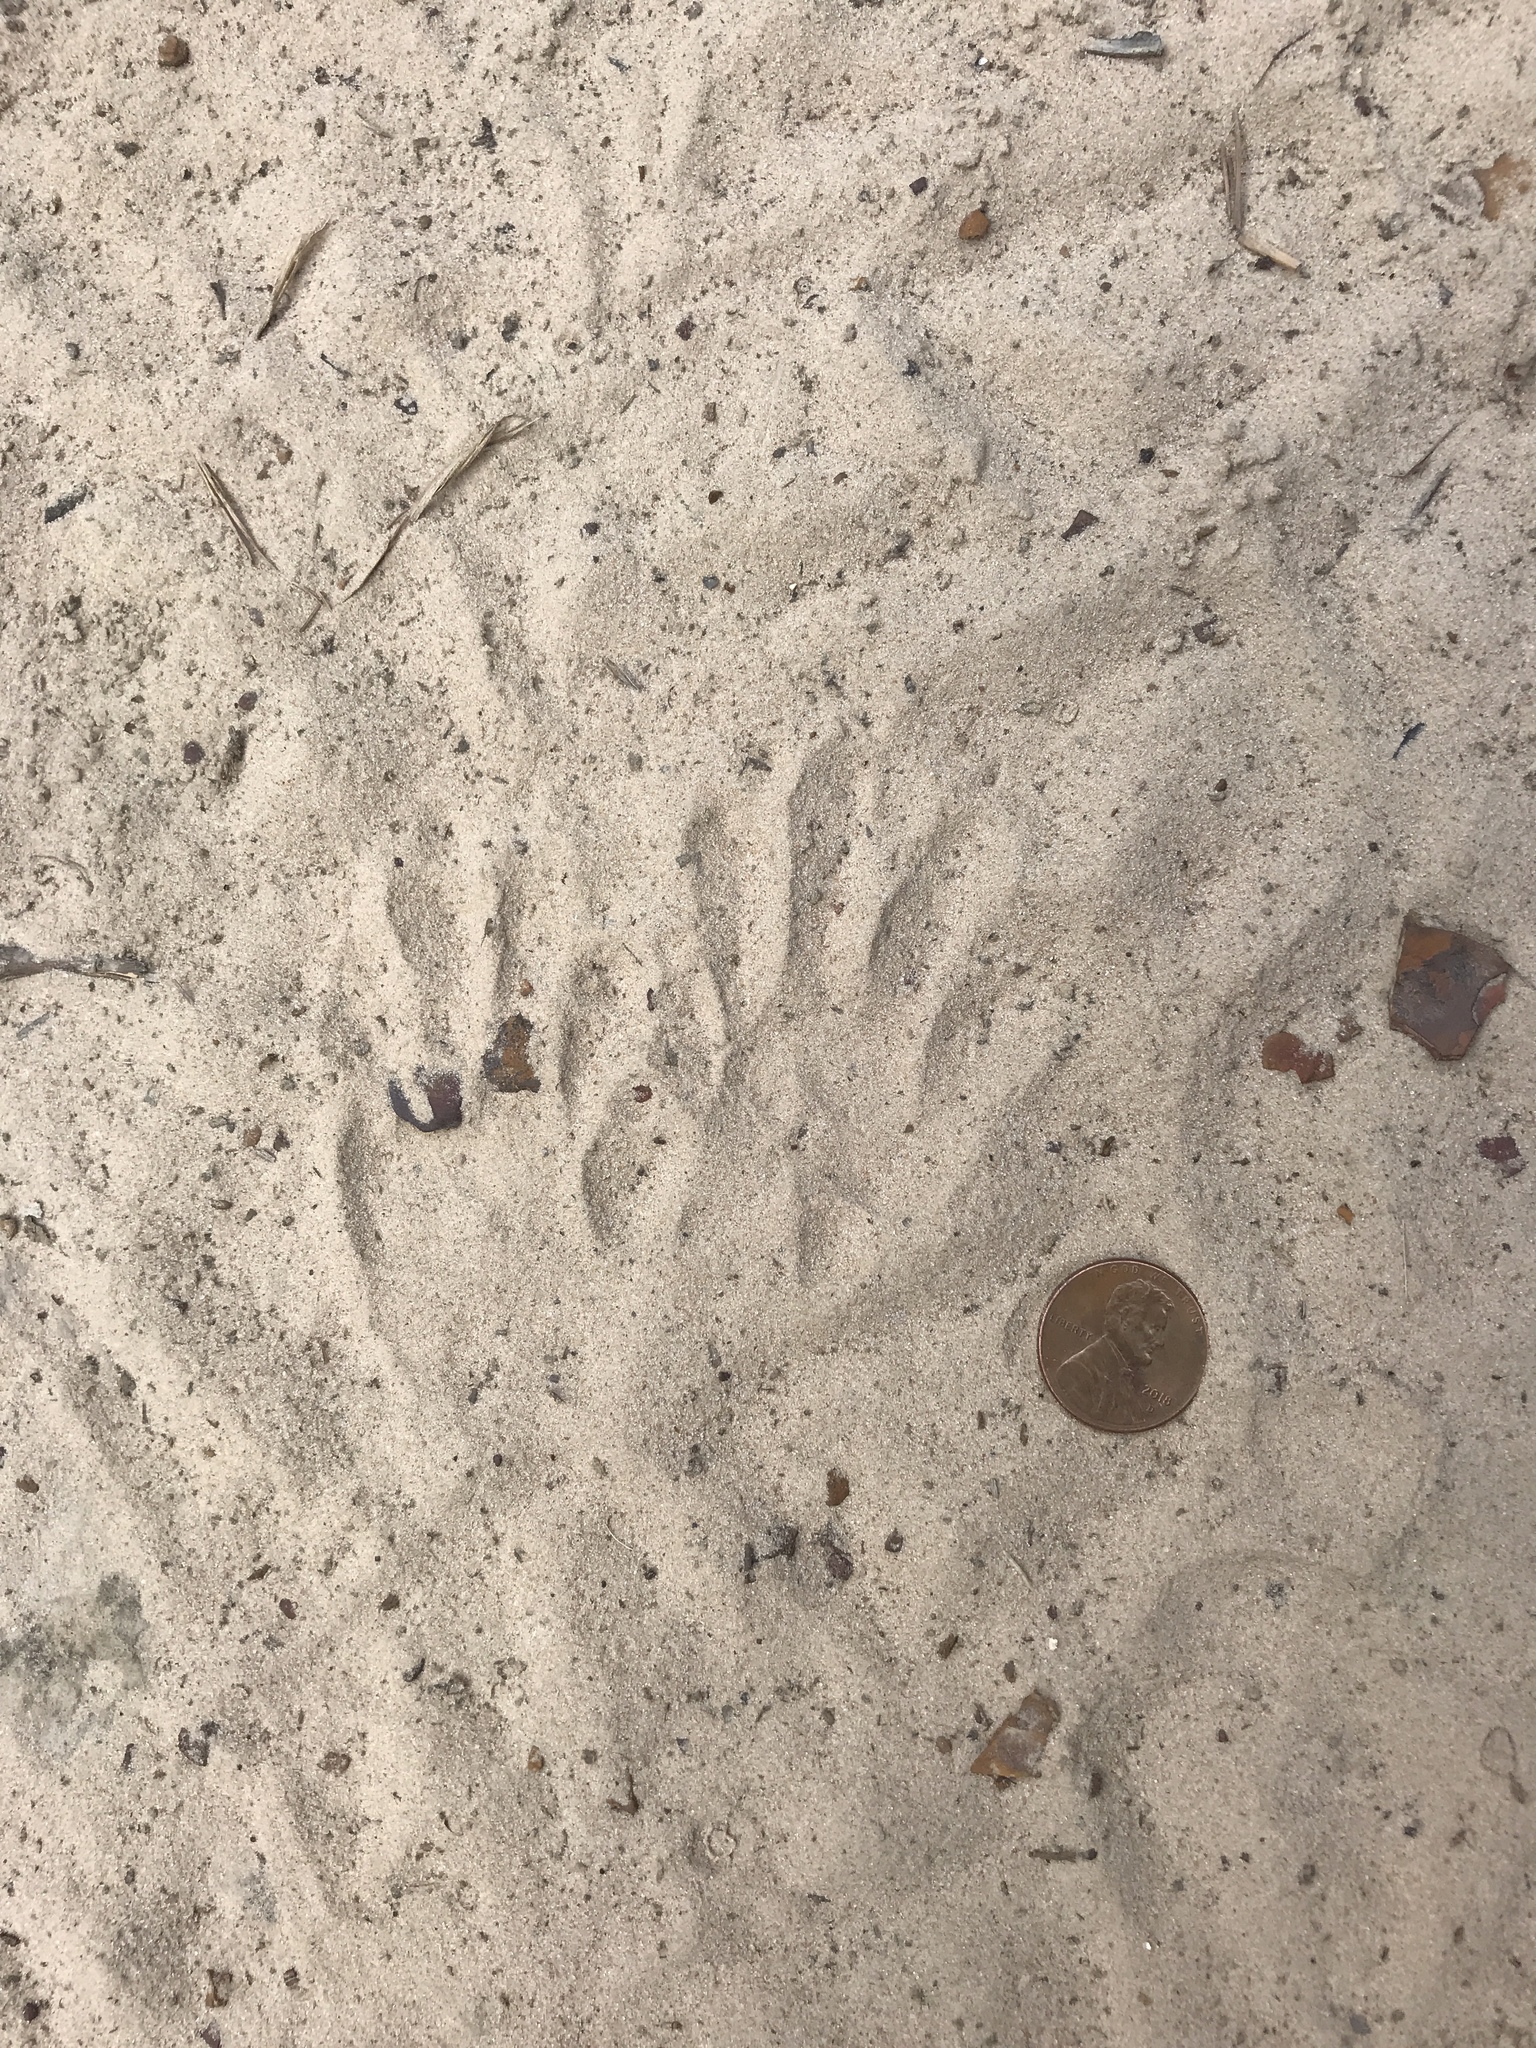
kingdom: Animalia
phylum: Chordata
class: Mammalia
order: Carnivora
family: Procyonidae
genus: Procyon
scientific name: Procyon lotor
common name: Raccoon
